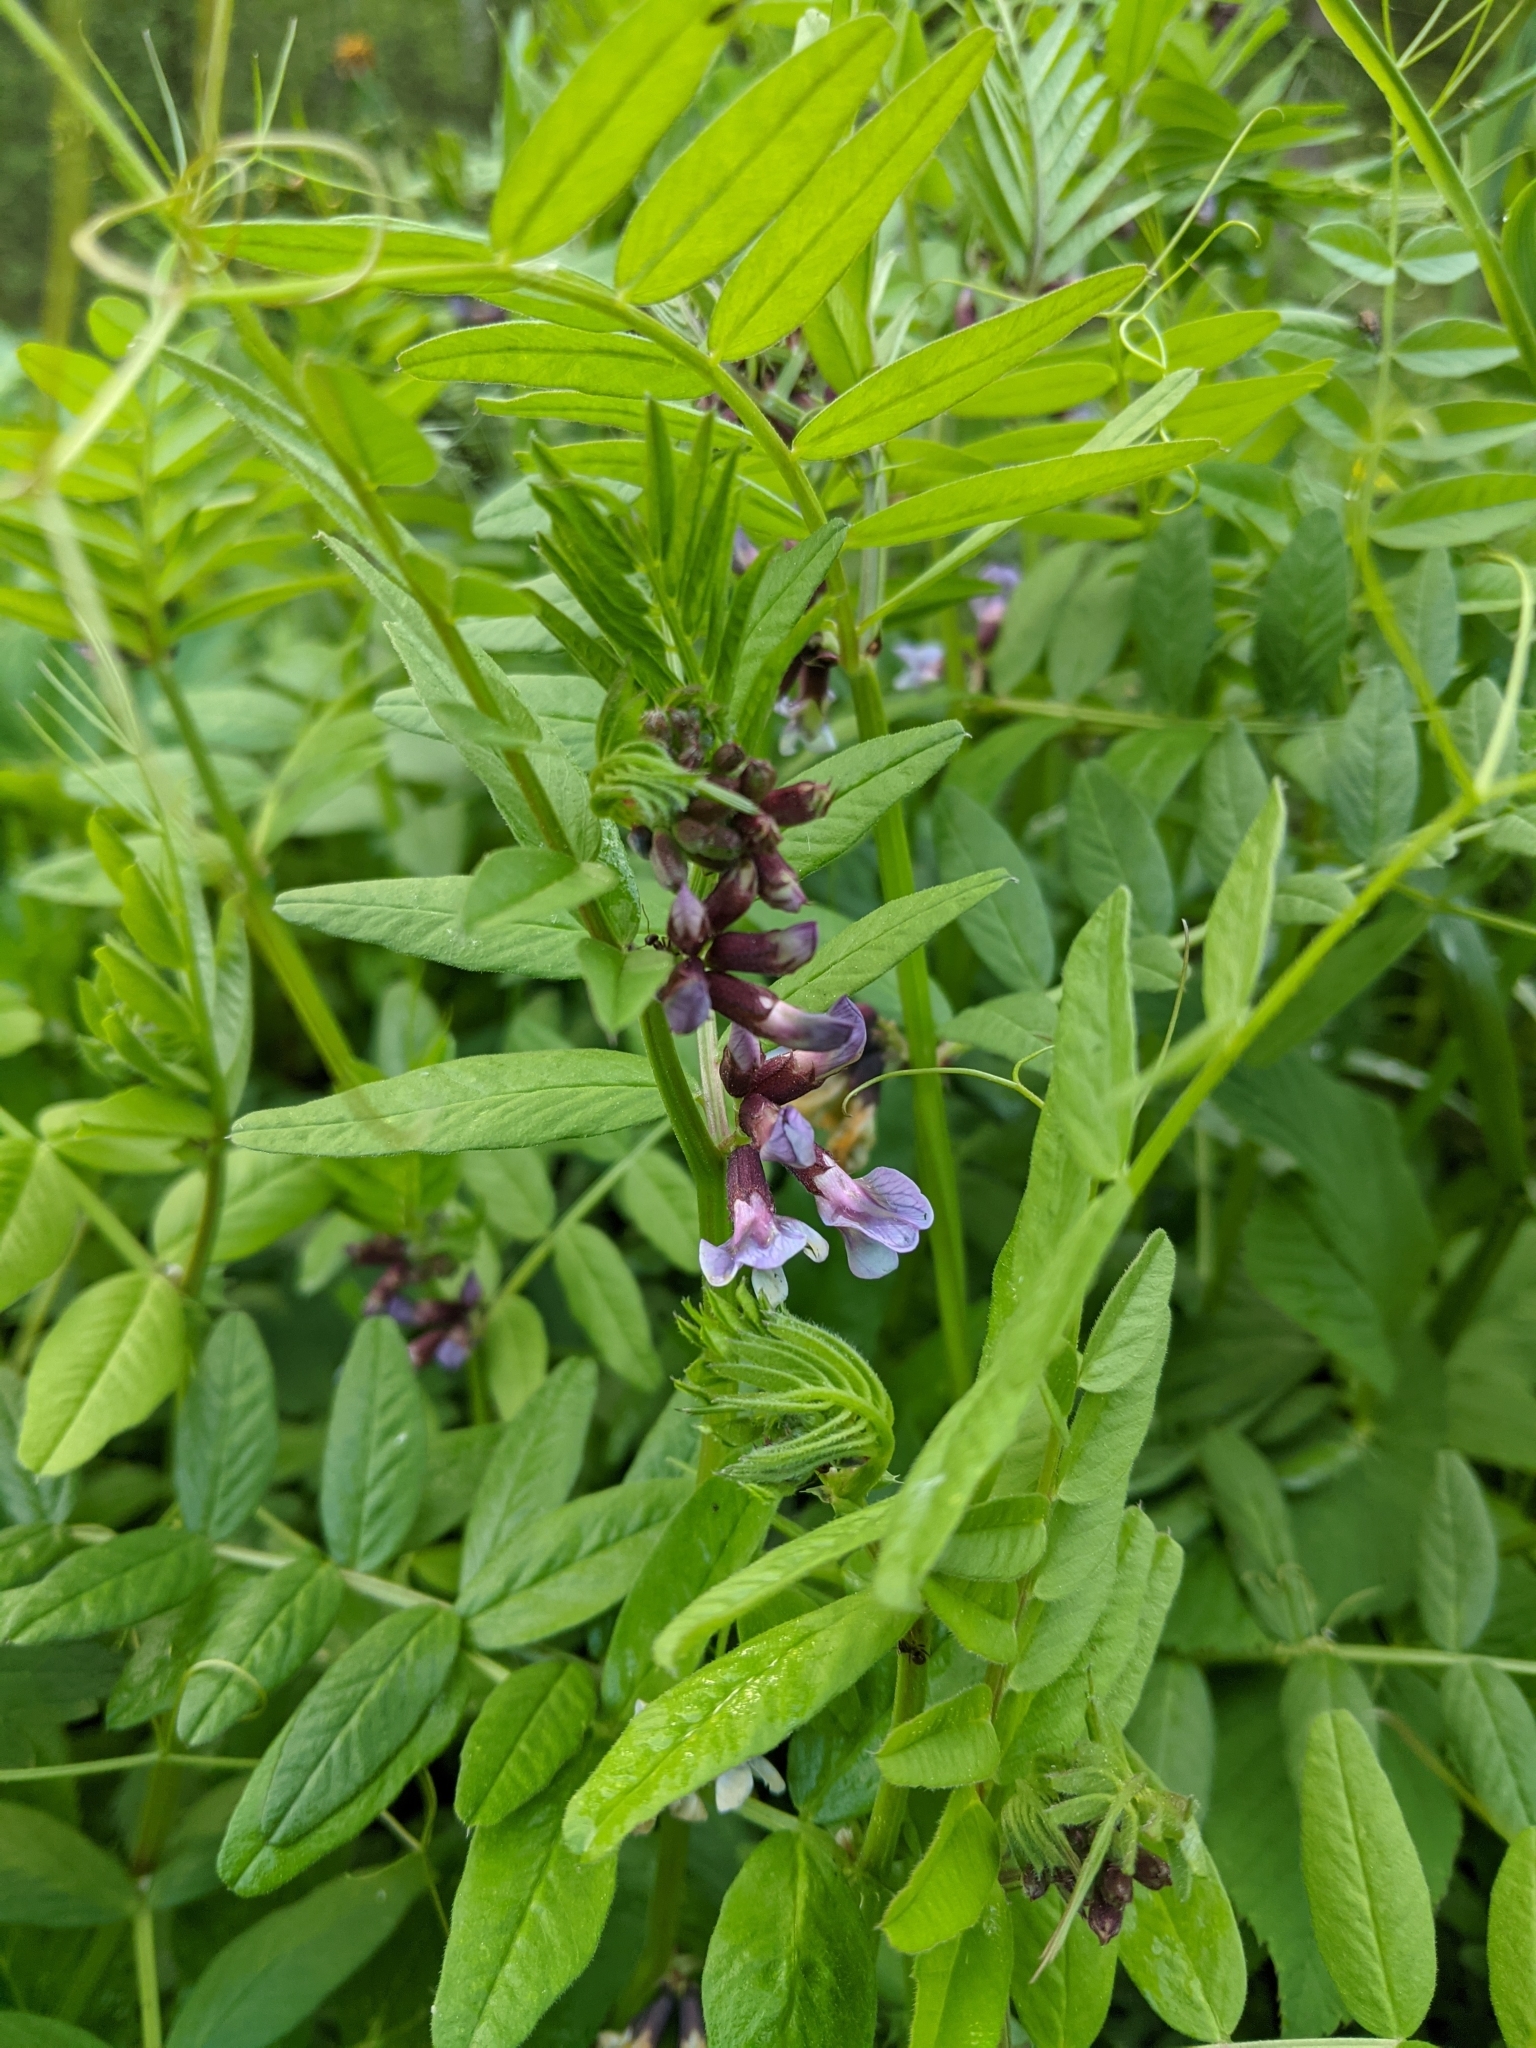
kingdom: Plantae
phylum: Tracheophyta
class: Magnoliopsida
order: Fabales
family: Fabaceae
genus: Vicia
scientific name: Vicia sepium
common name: Bush vetch
